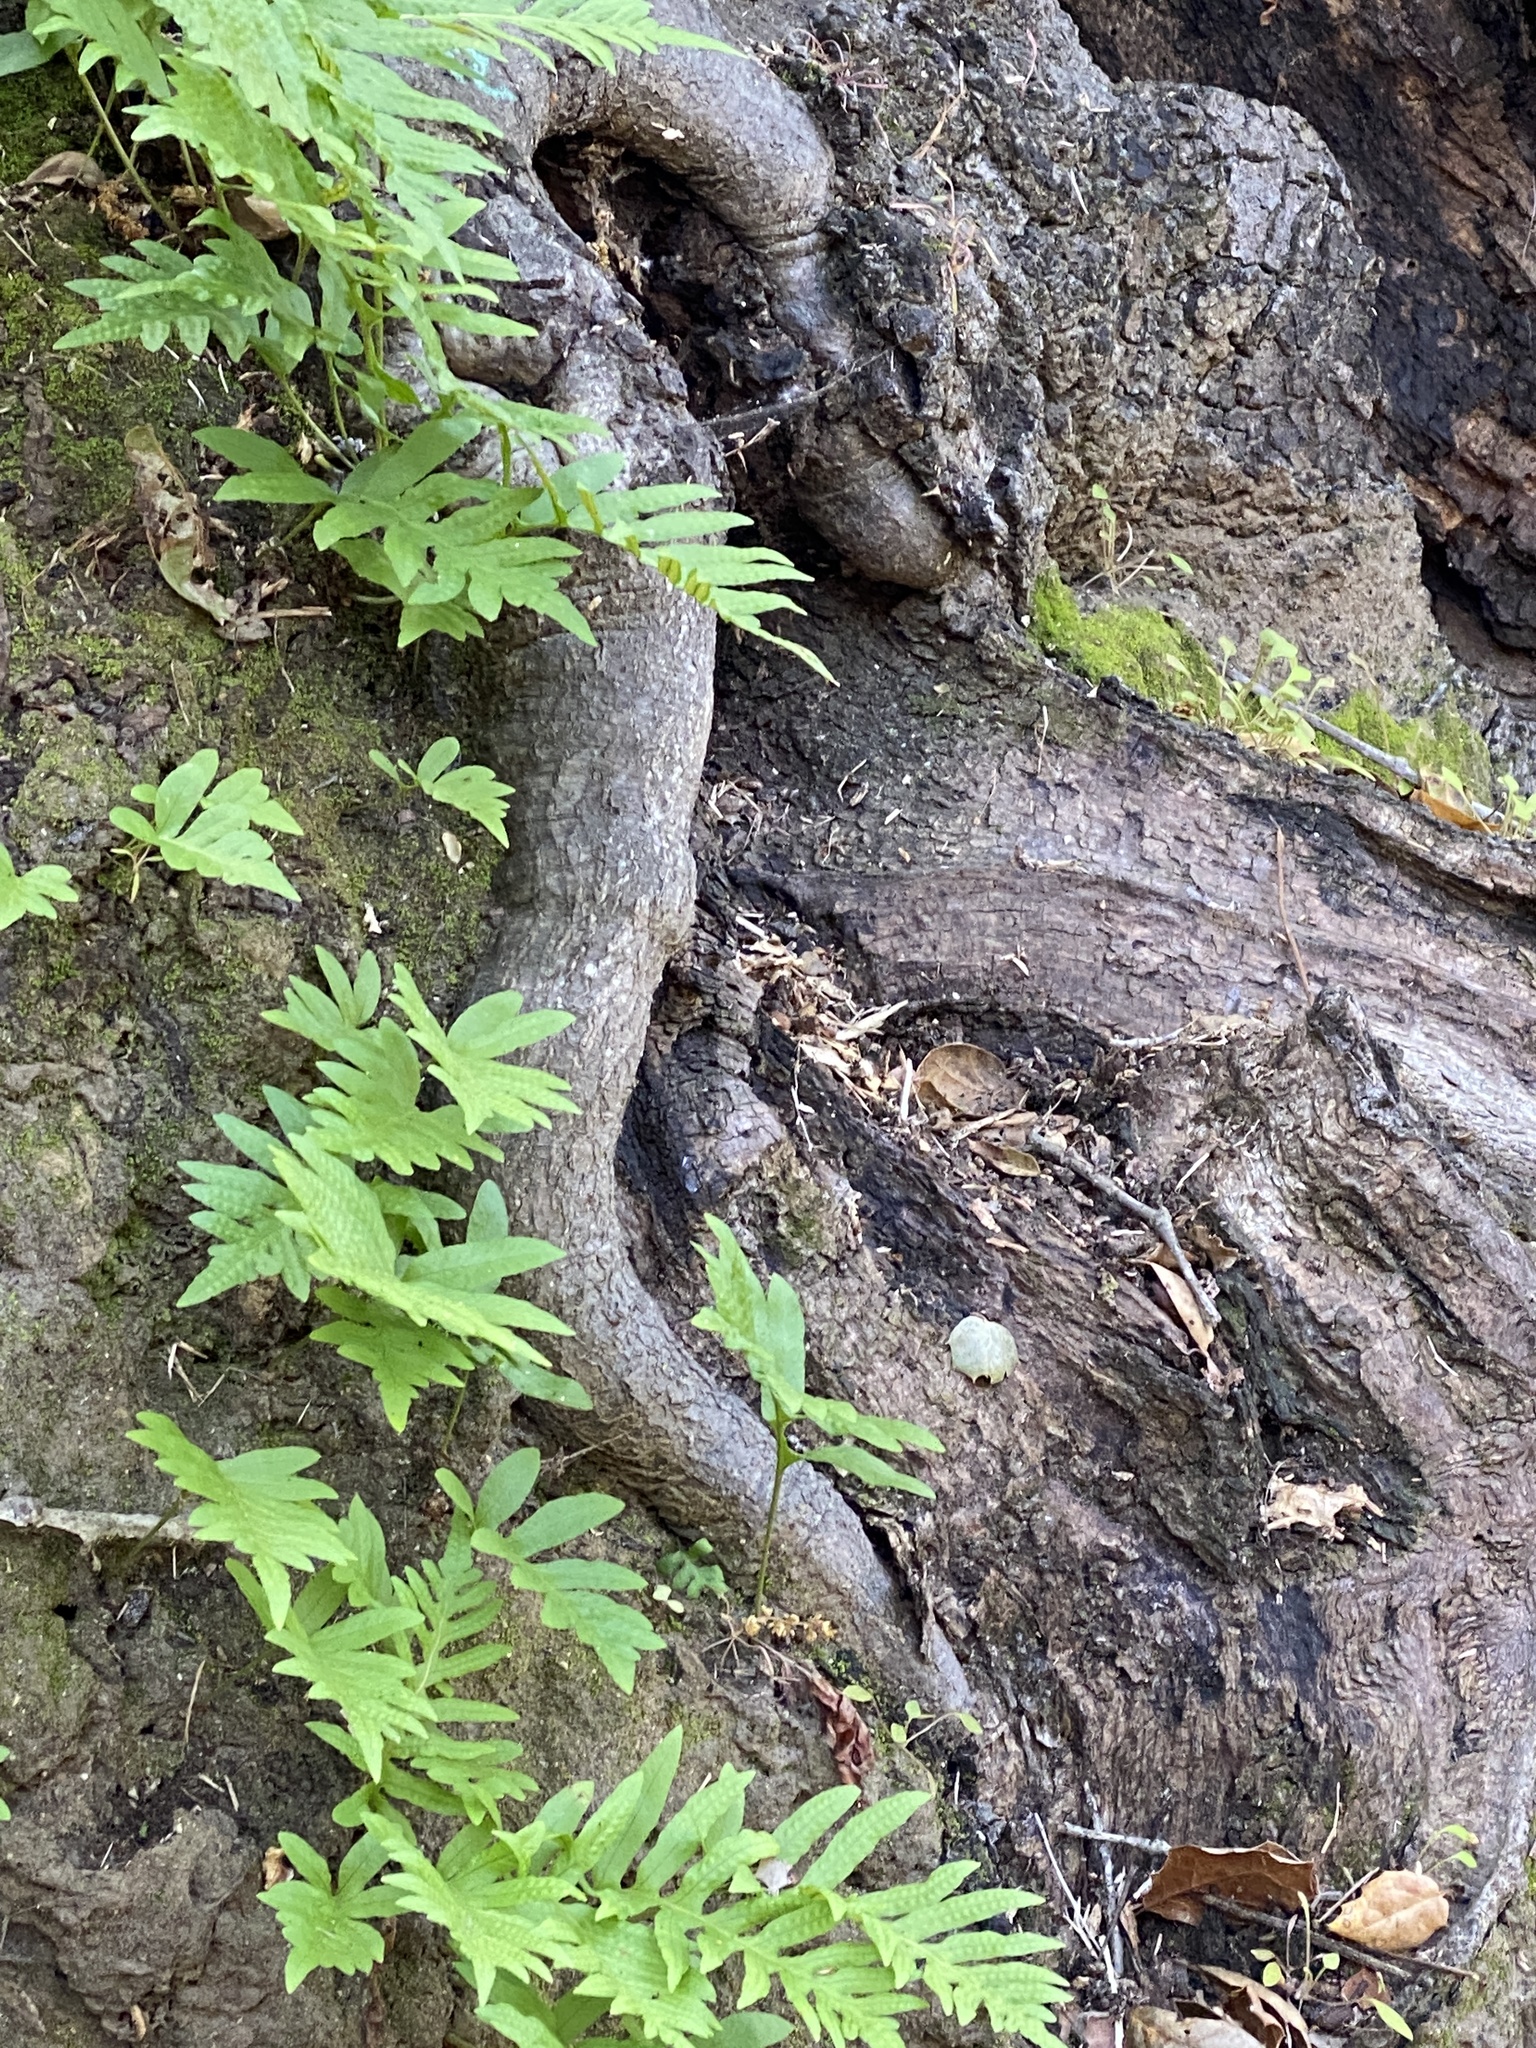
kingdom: Plantae
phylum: Tracheophyta
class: Polypodiopsida
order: Polypodiales
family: Polypodiaceae
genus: Polypodium
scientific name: Polypodium californicum
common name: California polypody
